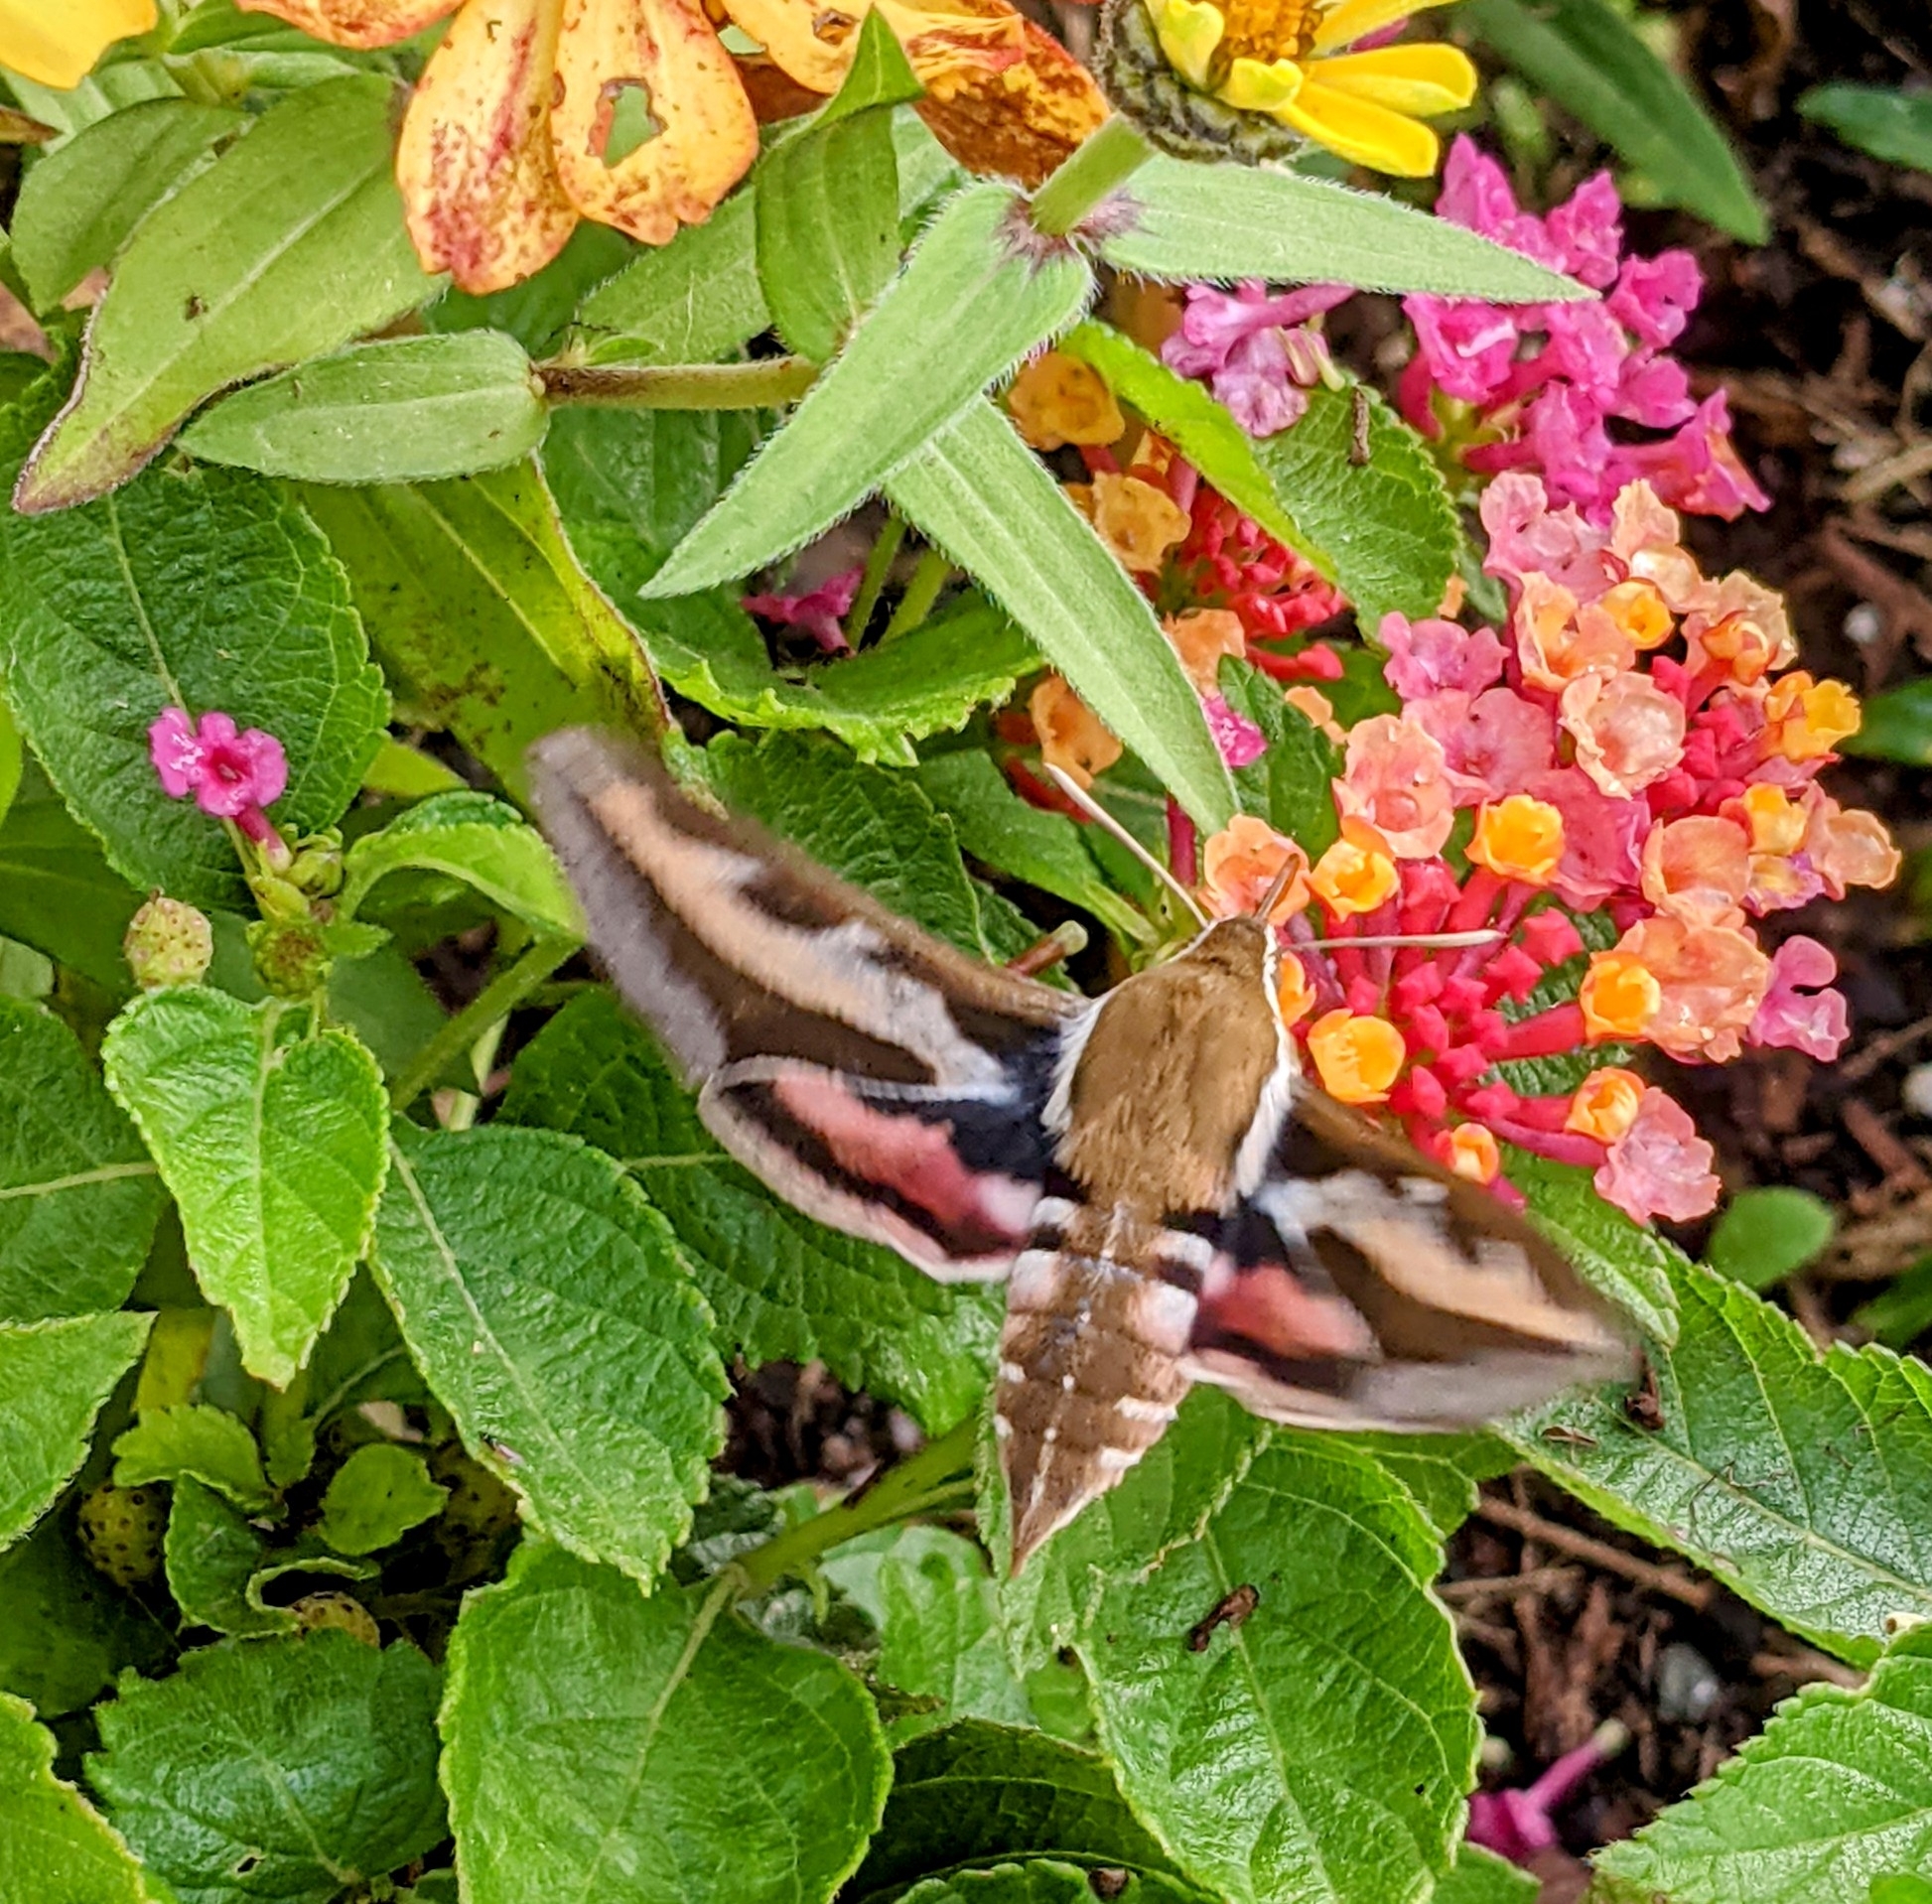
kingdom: Animalia
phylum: Arthropoda
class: Insecta
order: Lepidoptera
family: Sphingidae
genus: Hyles
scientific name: Hyles gallii
